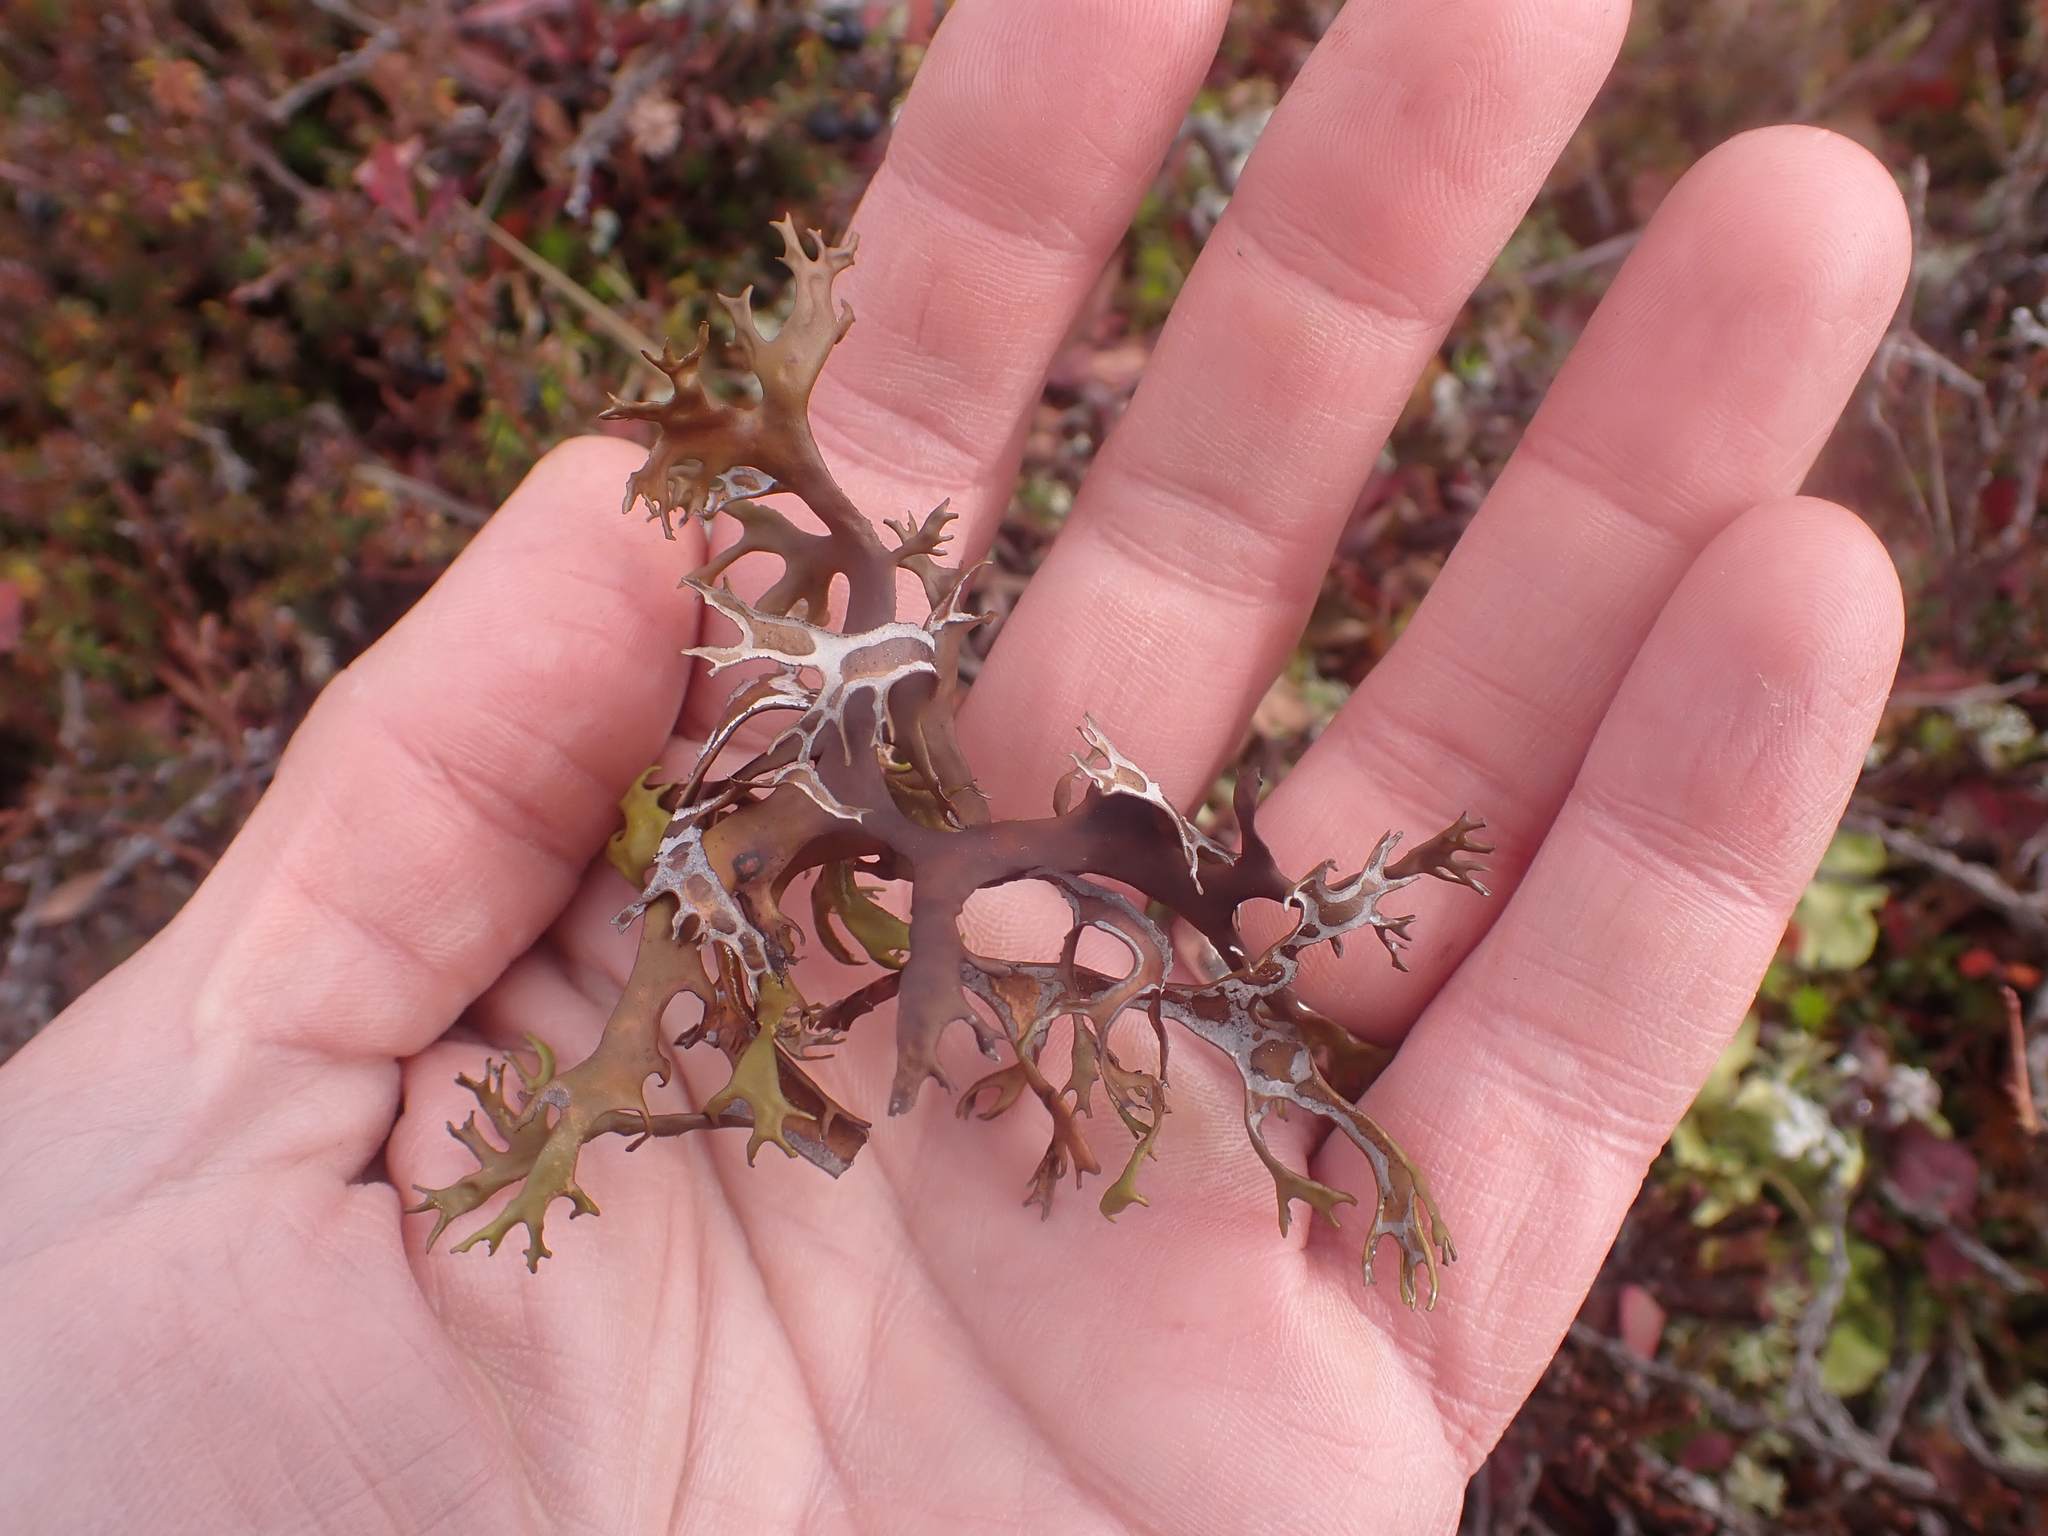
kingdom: Fungi
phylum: Ascomycota
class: Lecanoromycetes
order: Lecanorales
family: Parmeliaceae
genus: Nephromopsis
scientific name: Nephromopsis richardsonii
